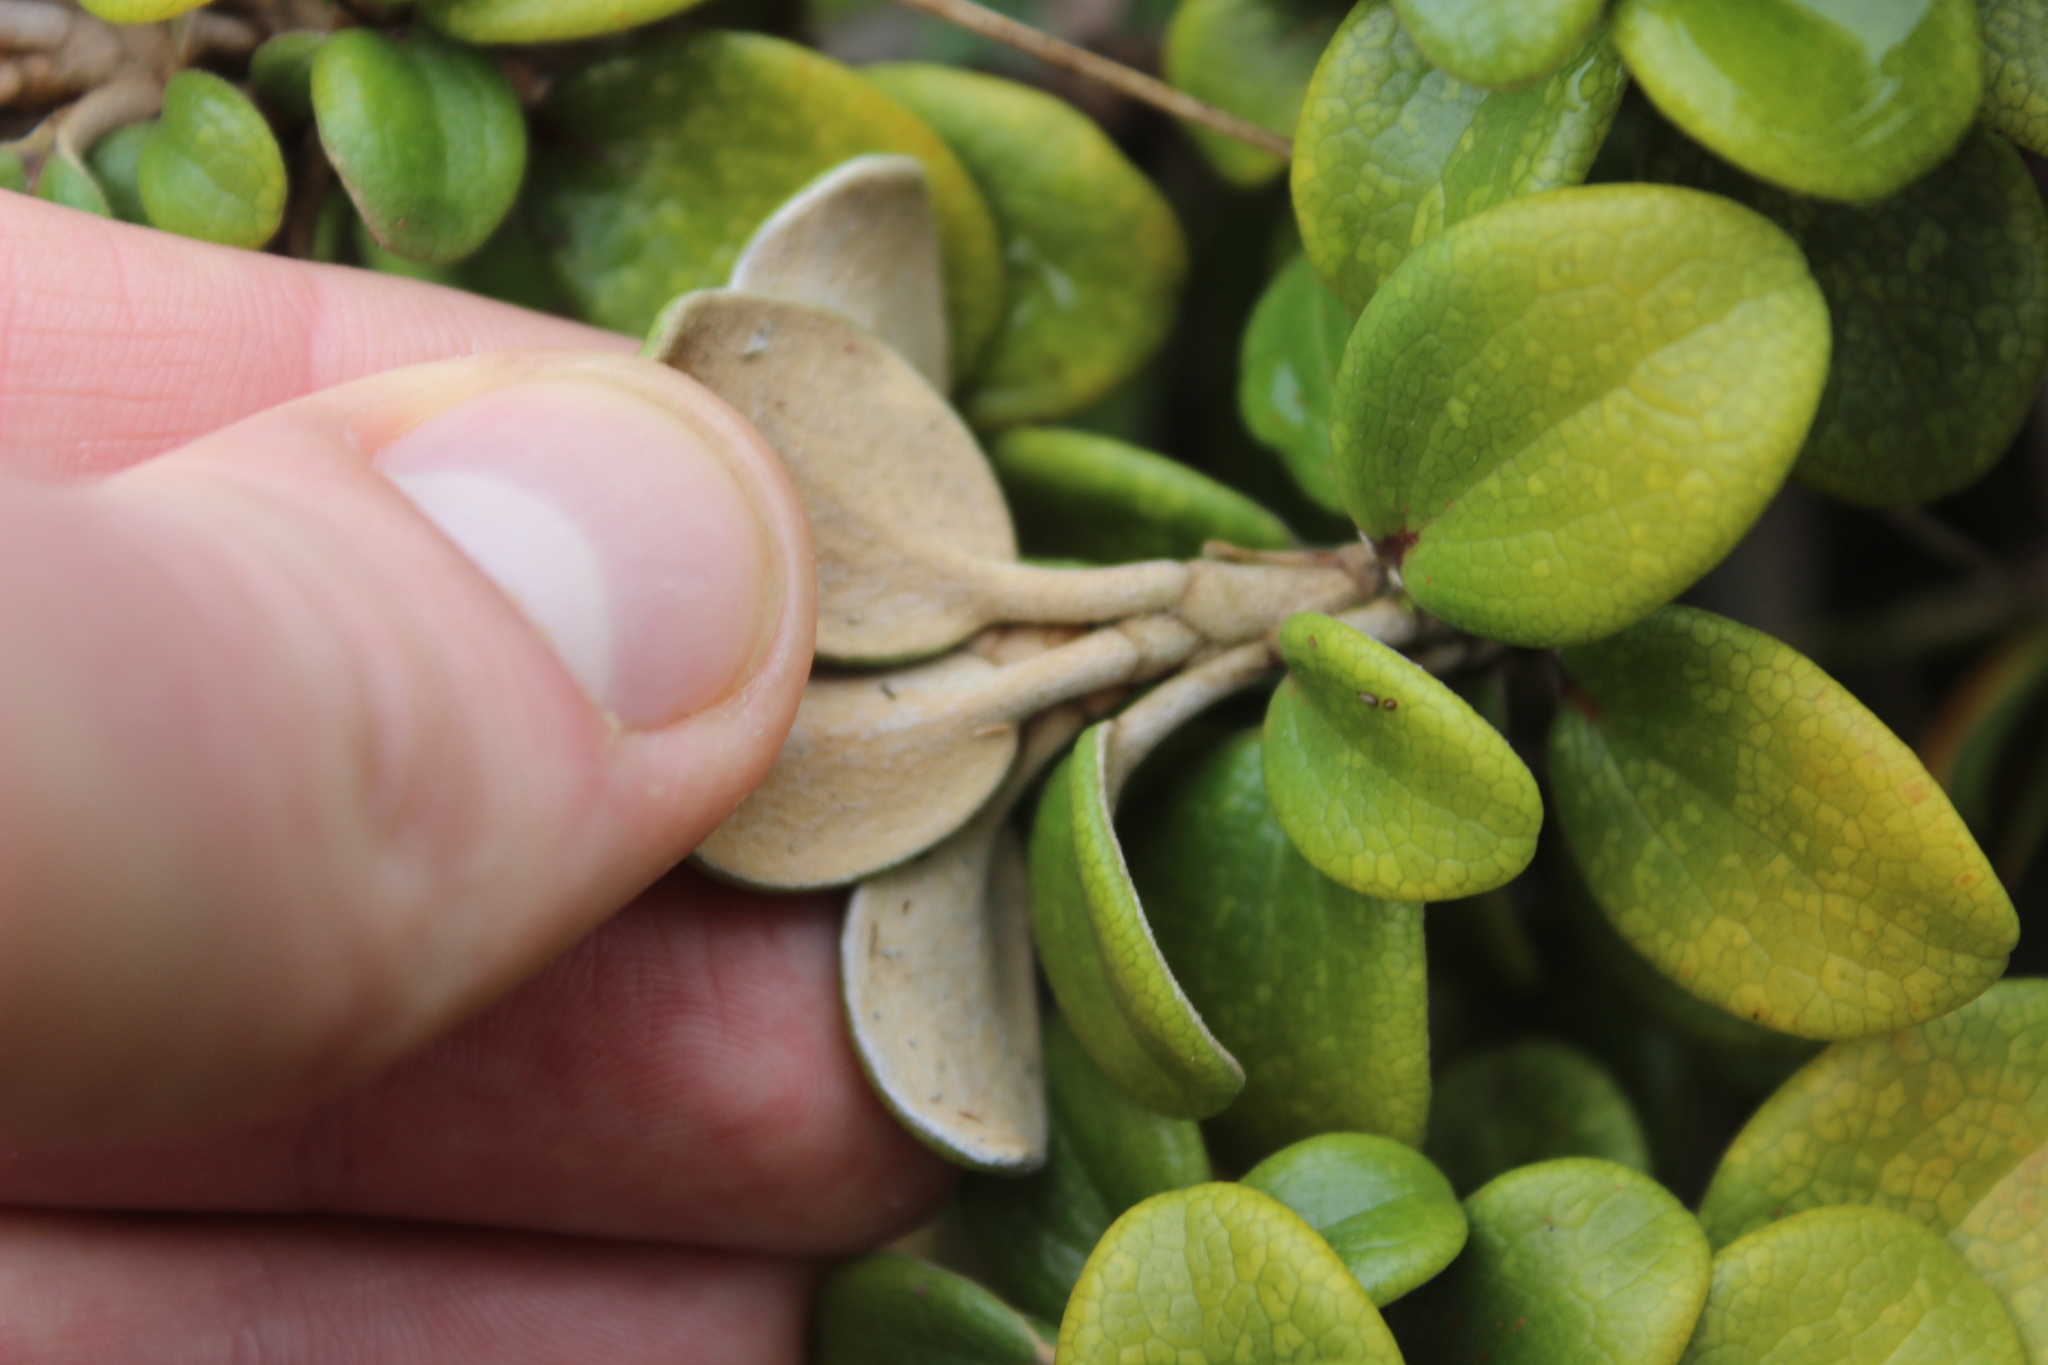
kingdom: Plantae
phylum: Tracheophyta
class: Magnoliopsida
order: Asterales
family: Asteraceae
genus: Brachyglottis
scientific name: Brachyglottis bidwillii
